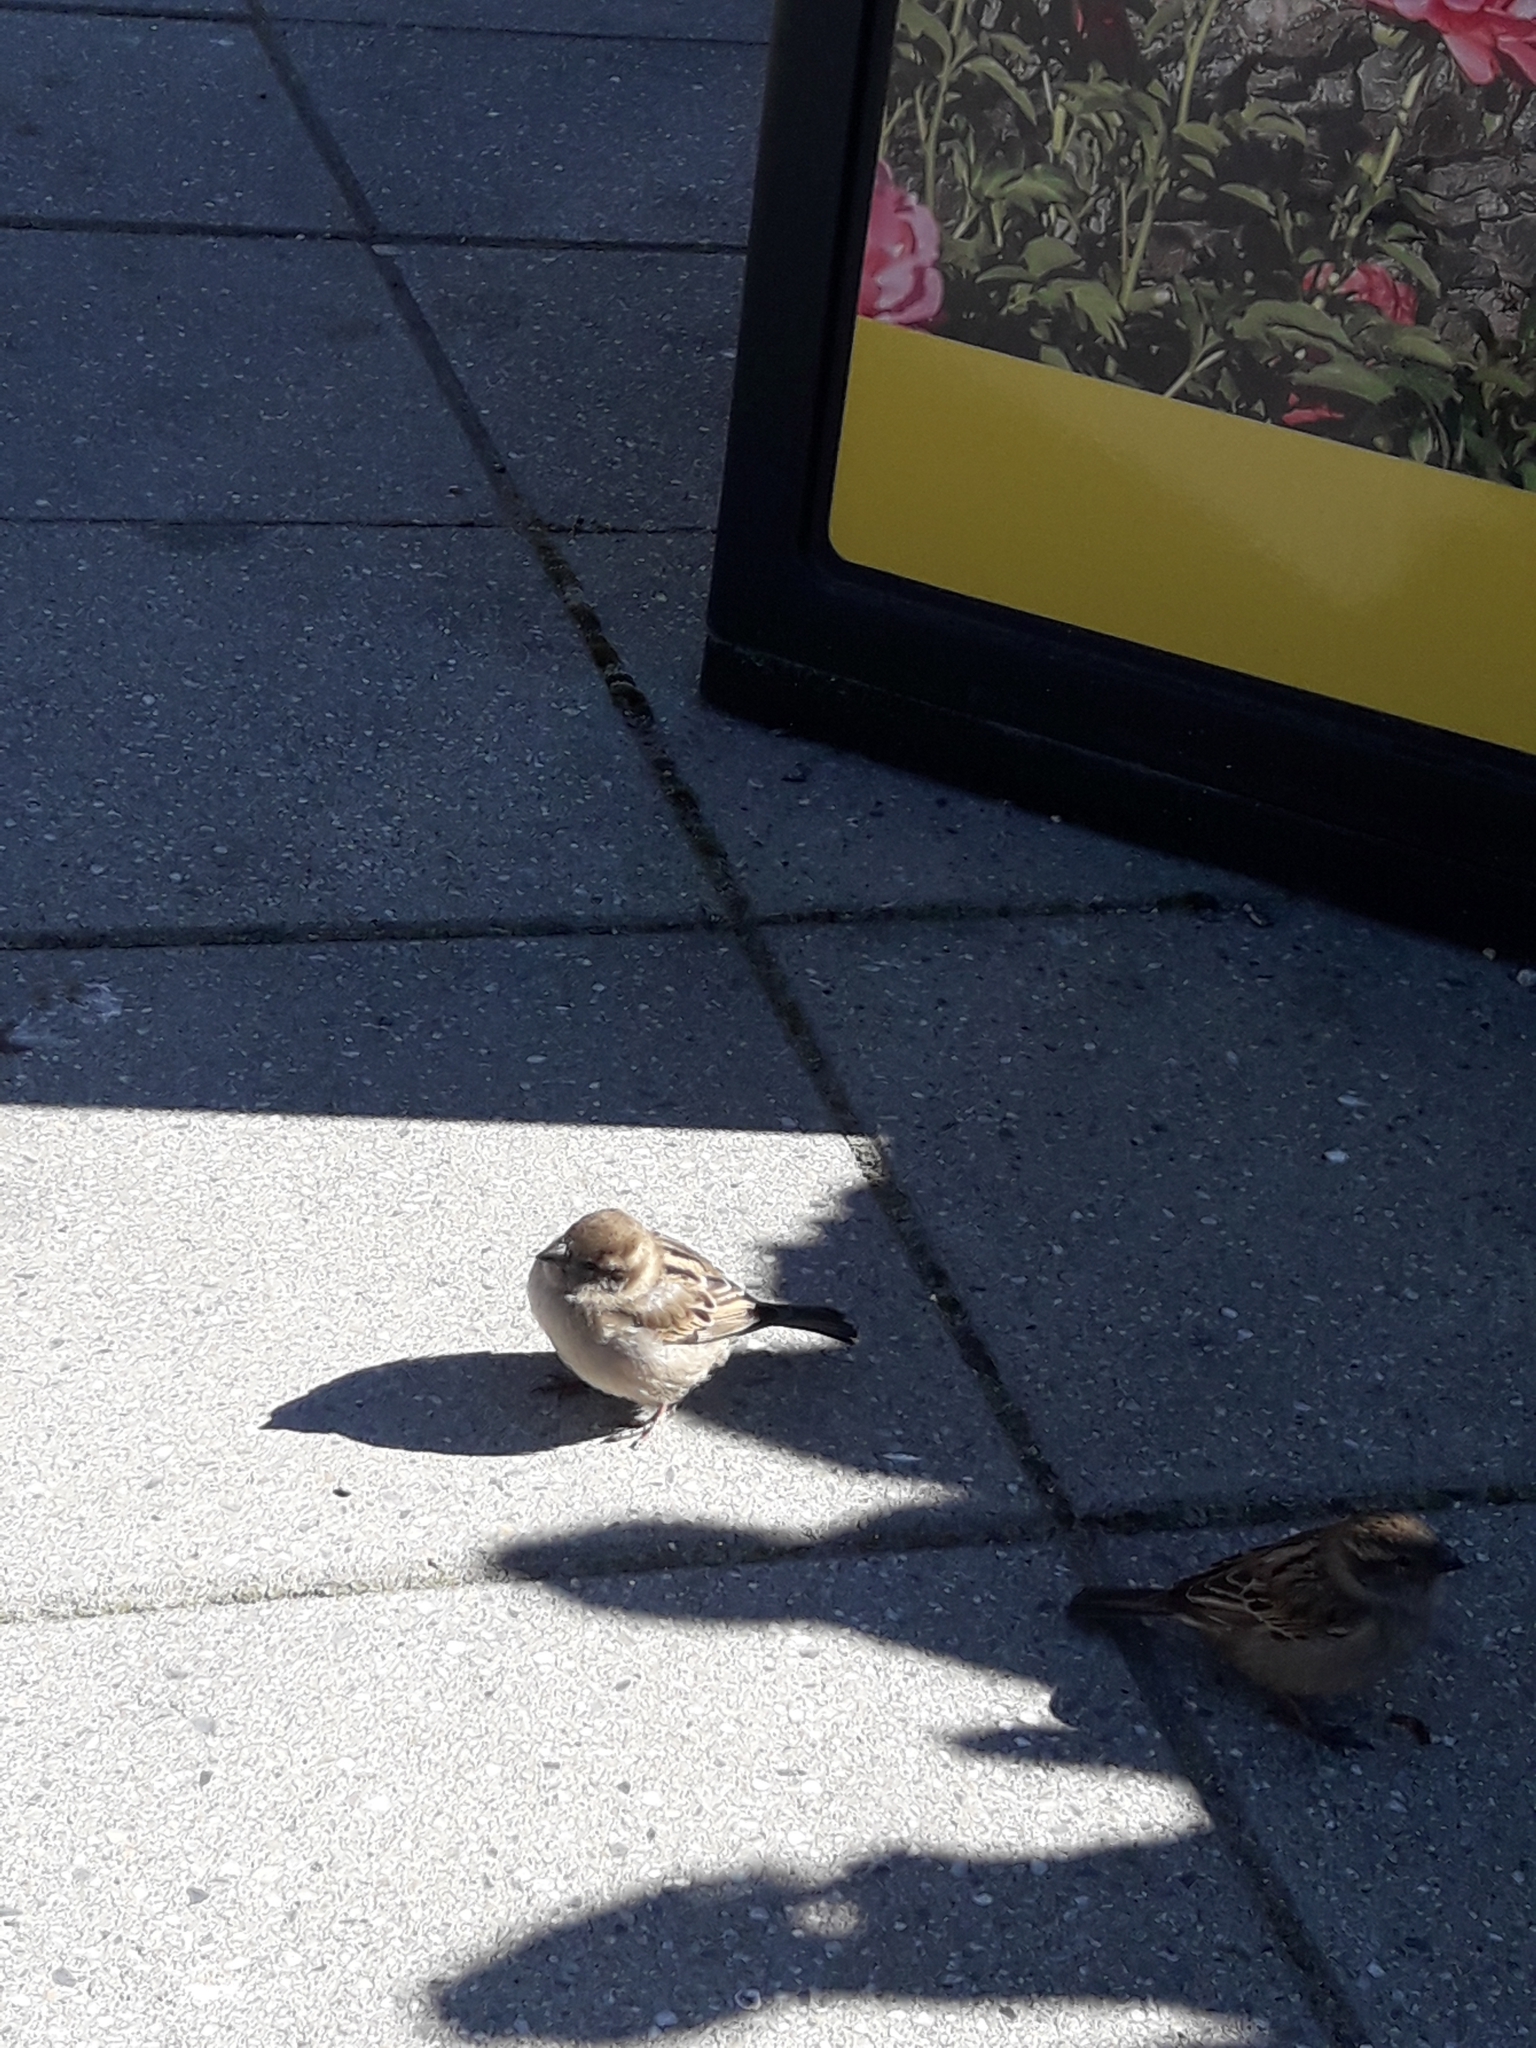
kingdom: Animalia
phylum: Chordata
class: Aves
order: Passeriformes
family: Passeridae
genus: Passer
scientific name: Passer domesticus
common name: House sparrow
